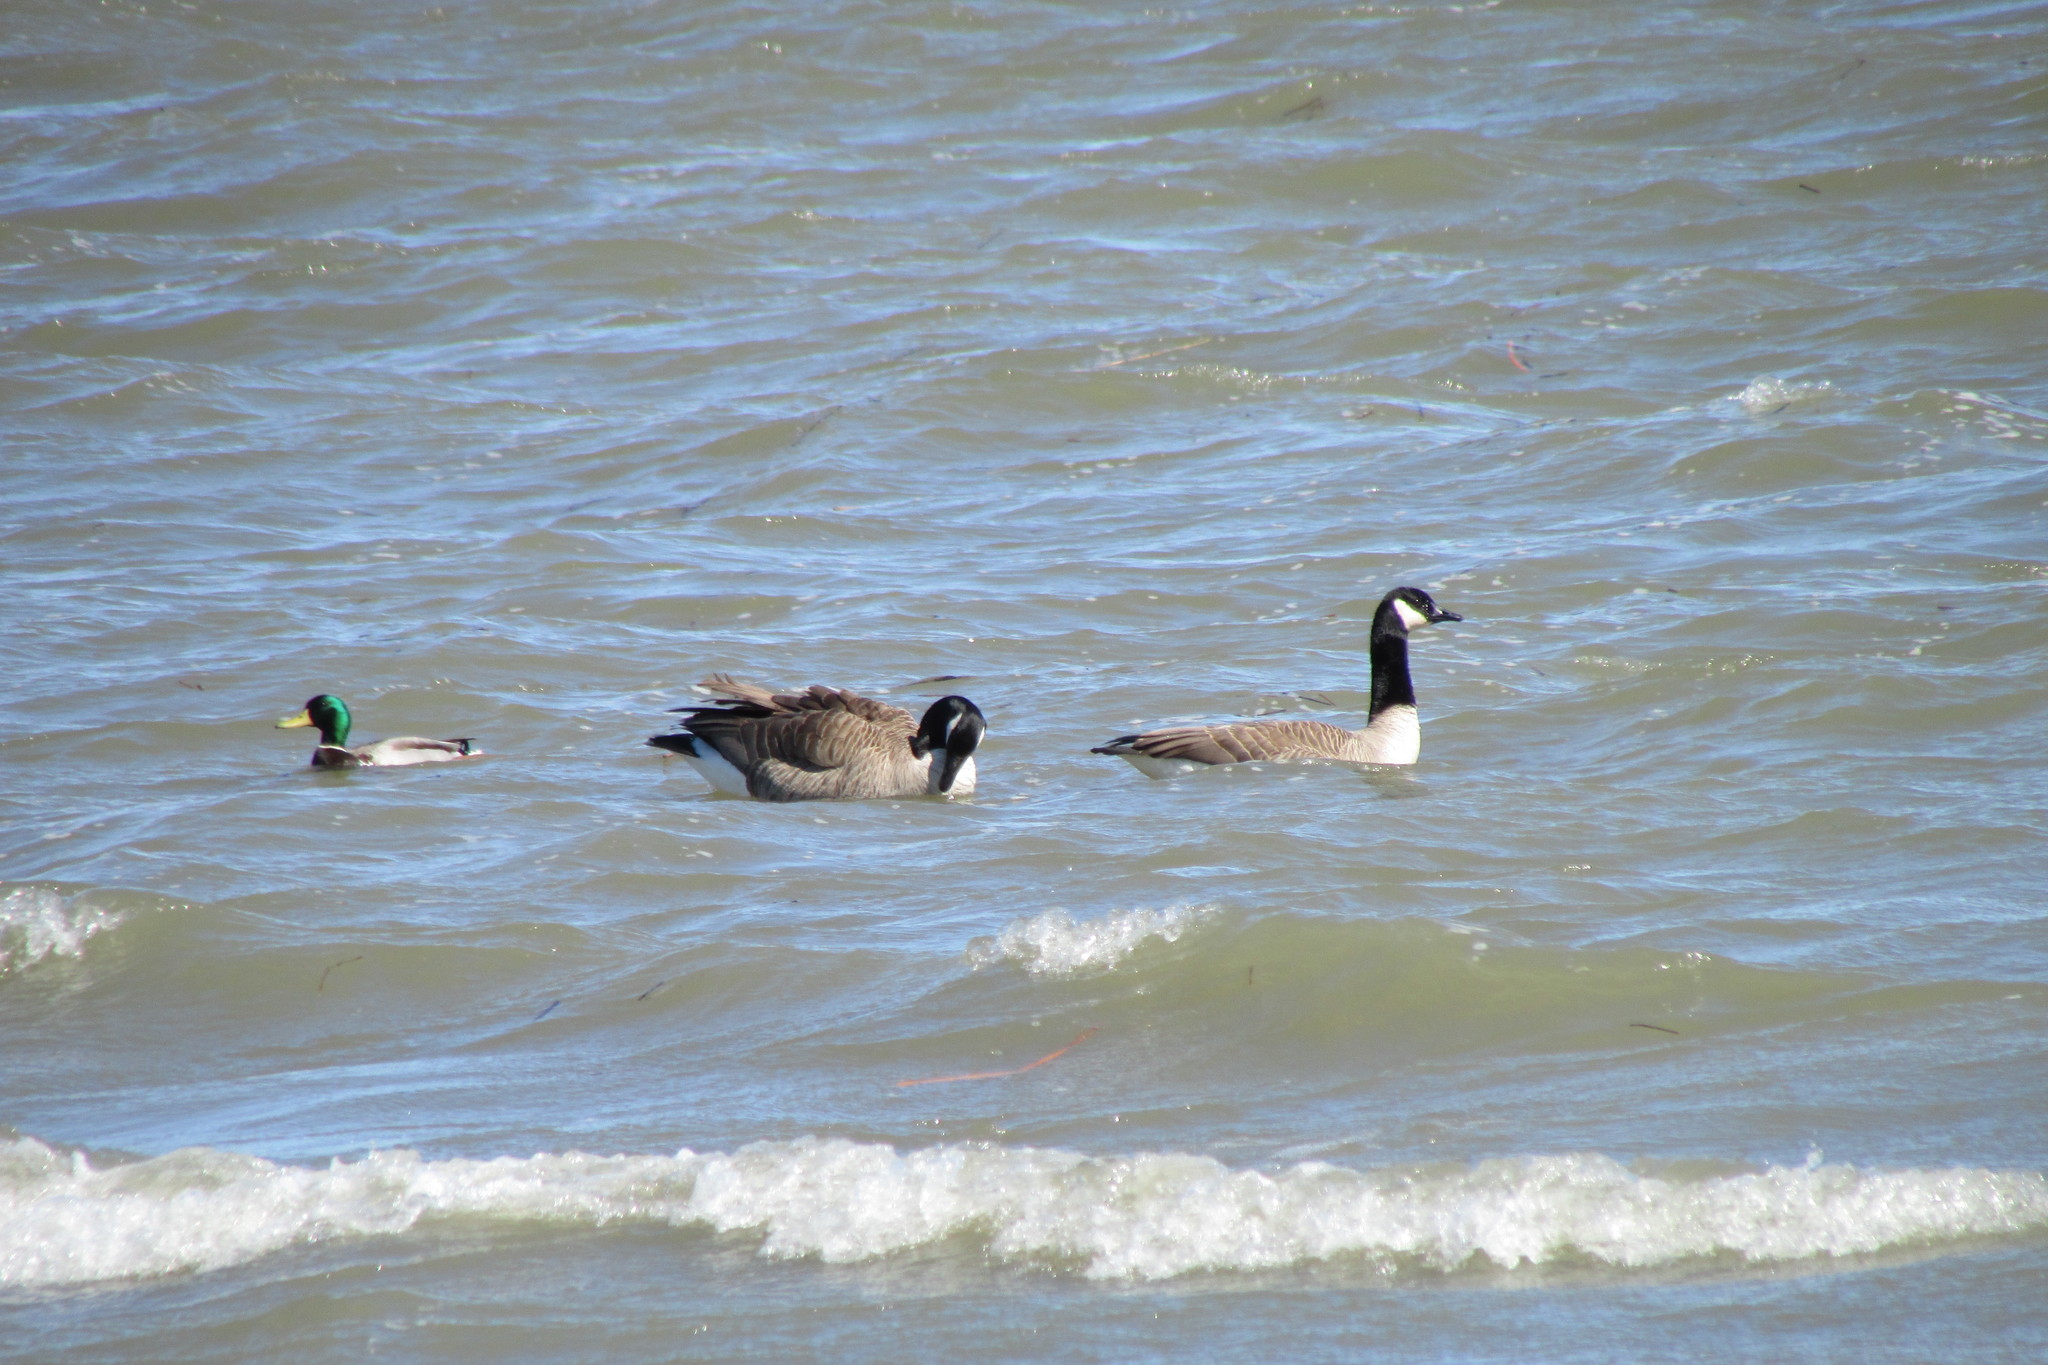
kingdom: Animalia
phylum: Chordata
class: Aves
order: Anseriformes
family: Anatidae
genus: Anas
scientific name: Anas platyrhynchos
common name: Mallard
